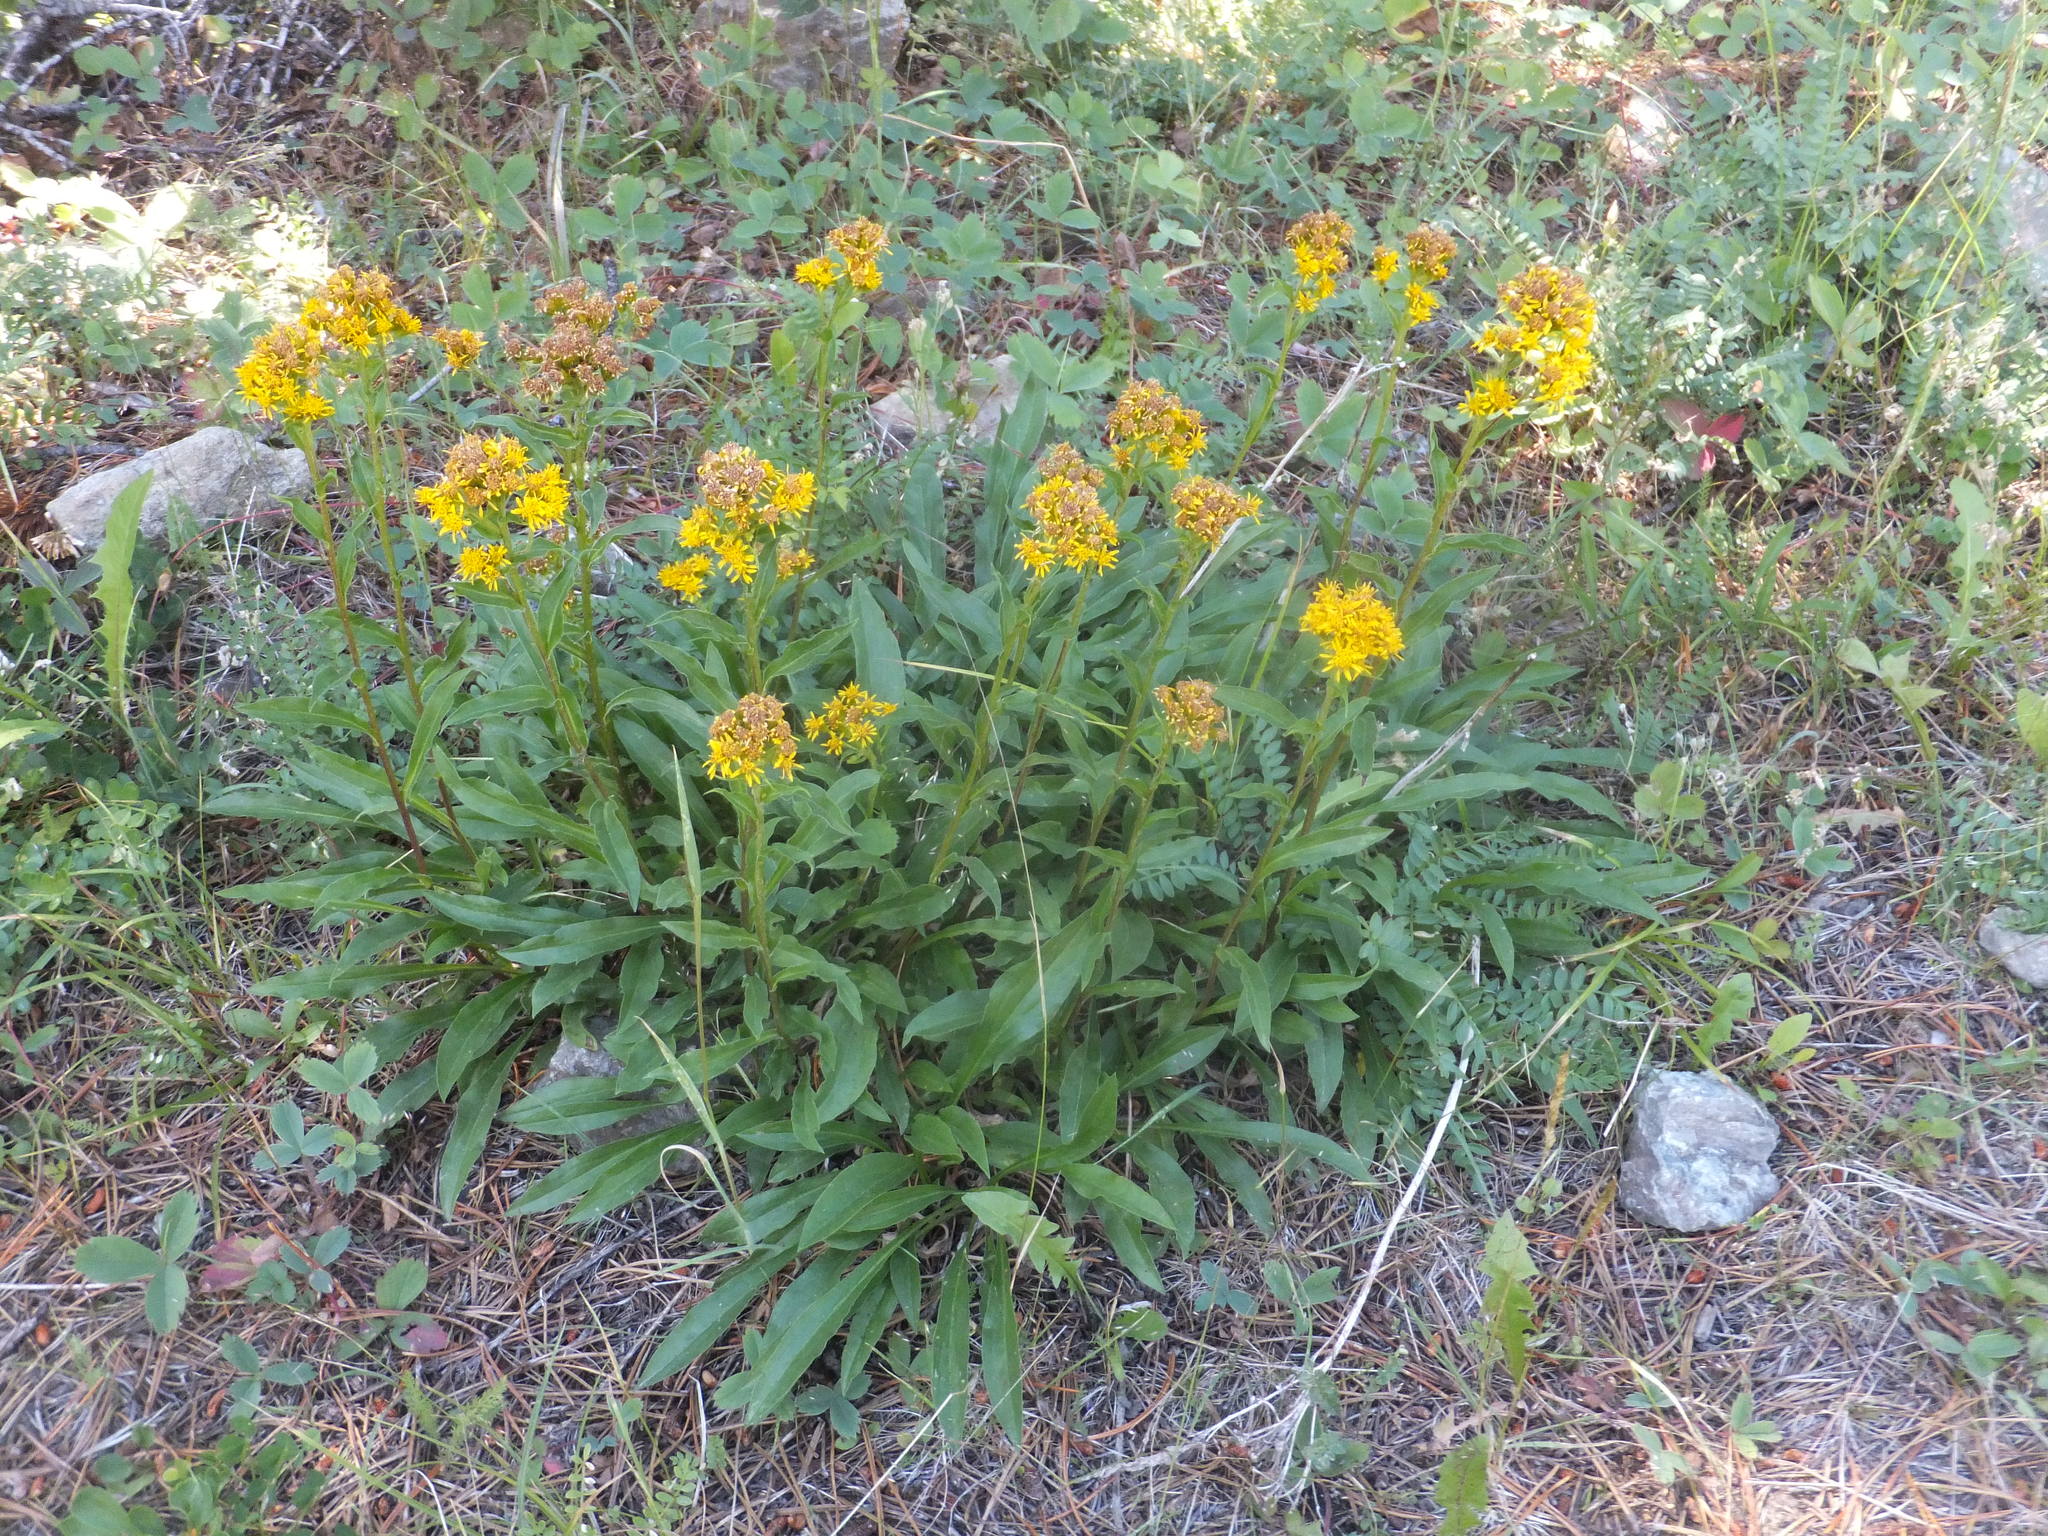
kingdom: Plantae
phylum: Tracheophyta
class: Magnoliopsida
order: Asterales
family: Asteraceae
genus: Solidago
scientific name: Solidago multiradiata
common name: Northern goldenrod
